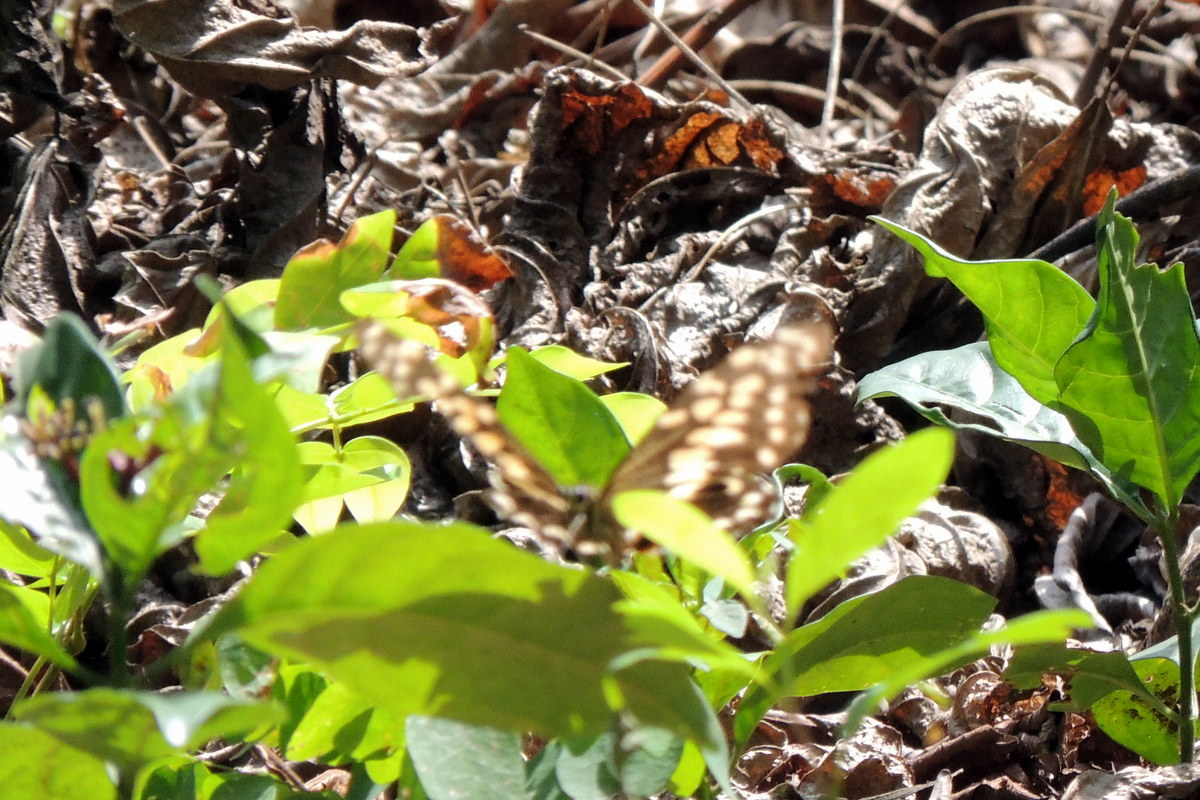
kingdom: Animalia
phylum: Arthropoda
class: Insecta
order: Lepidoptera
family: Papilionidae
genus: Papilio
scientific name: Papilio demodocus
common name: Christmas butterfly
